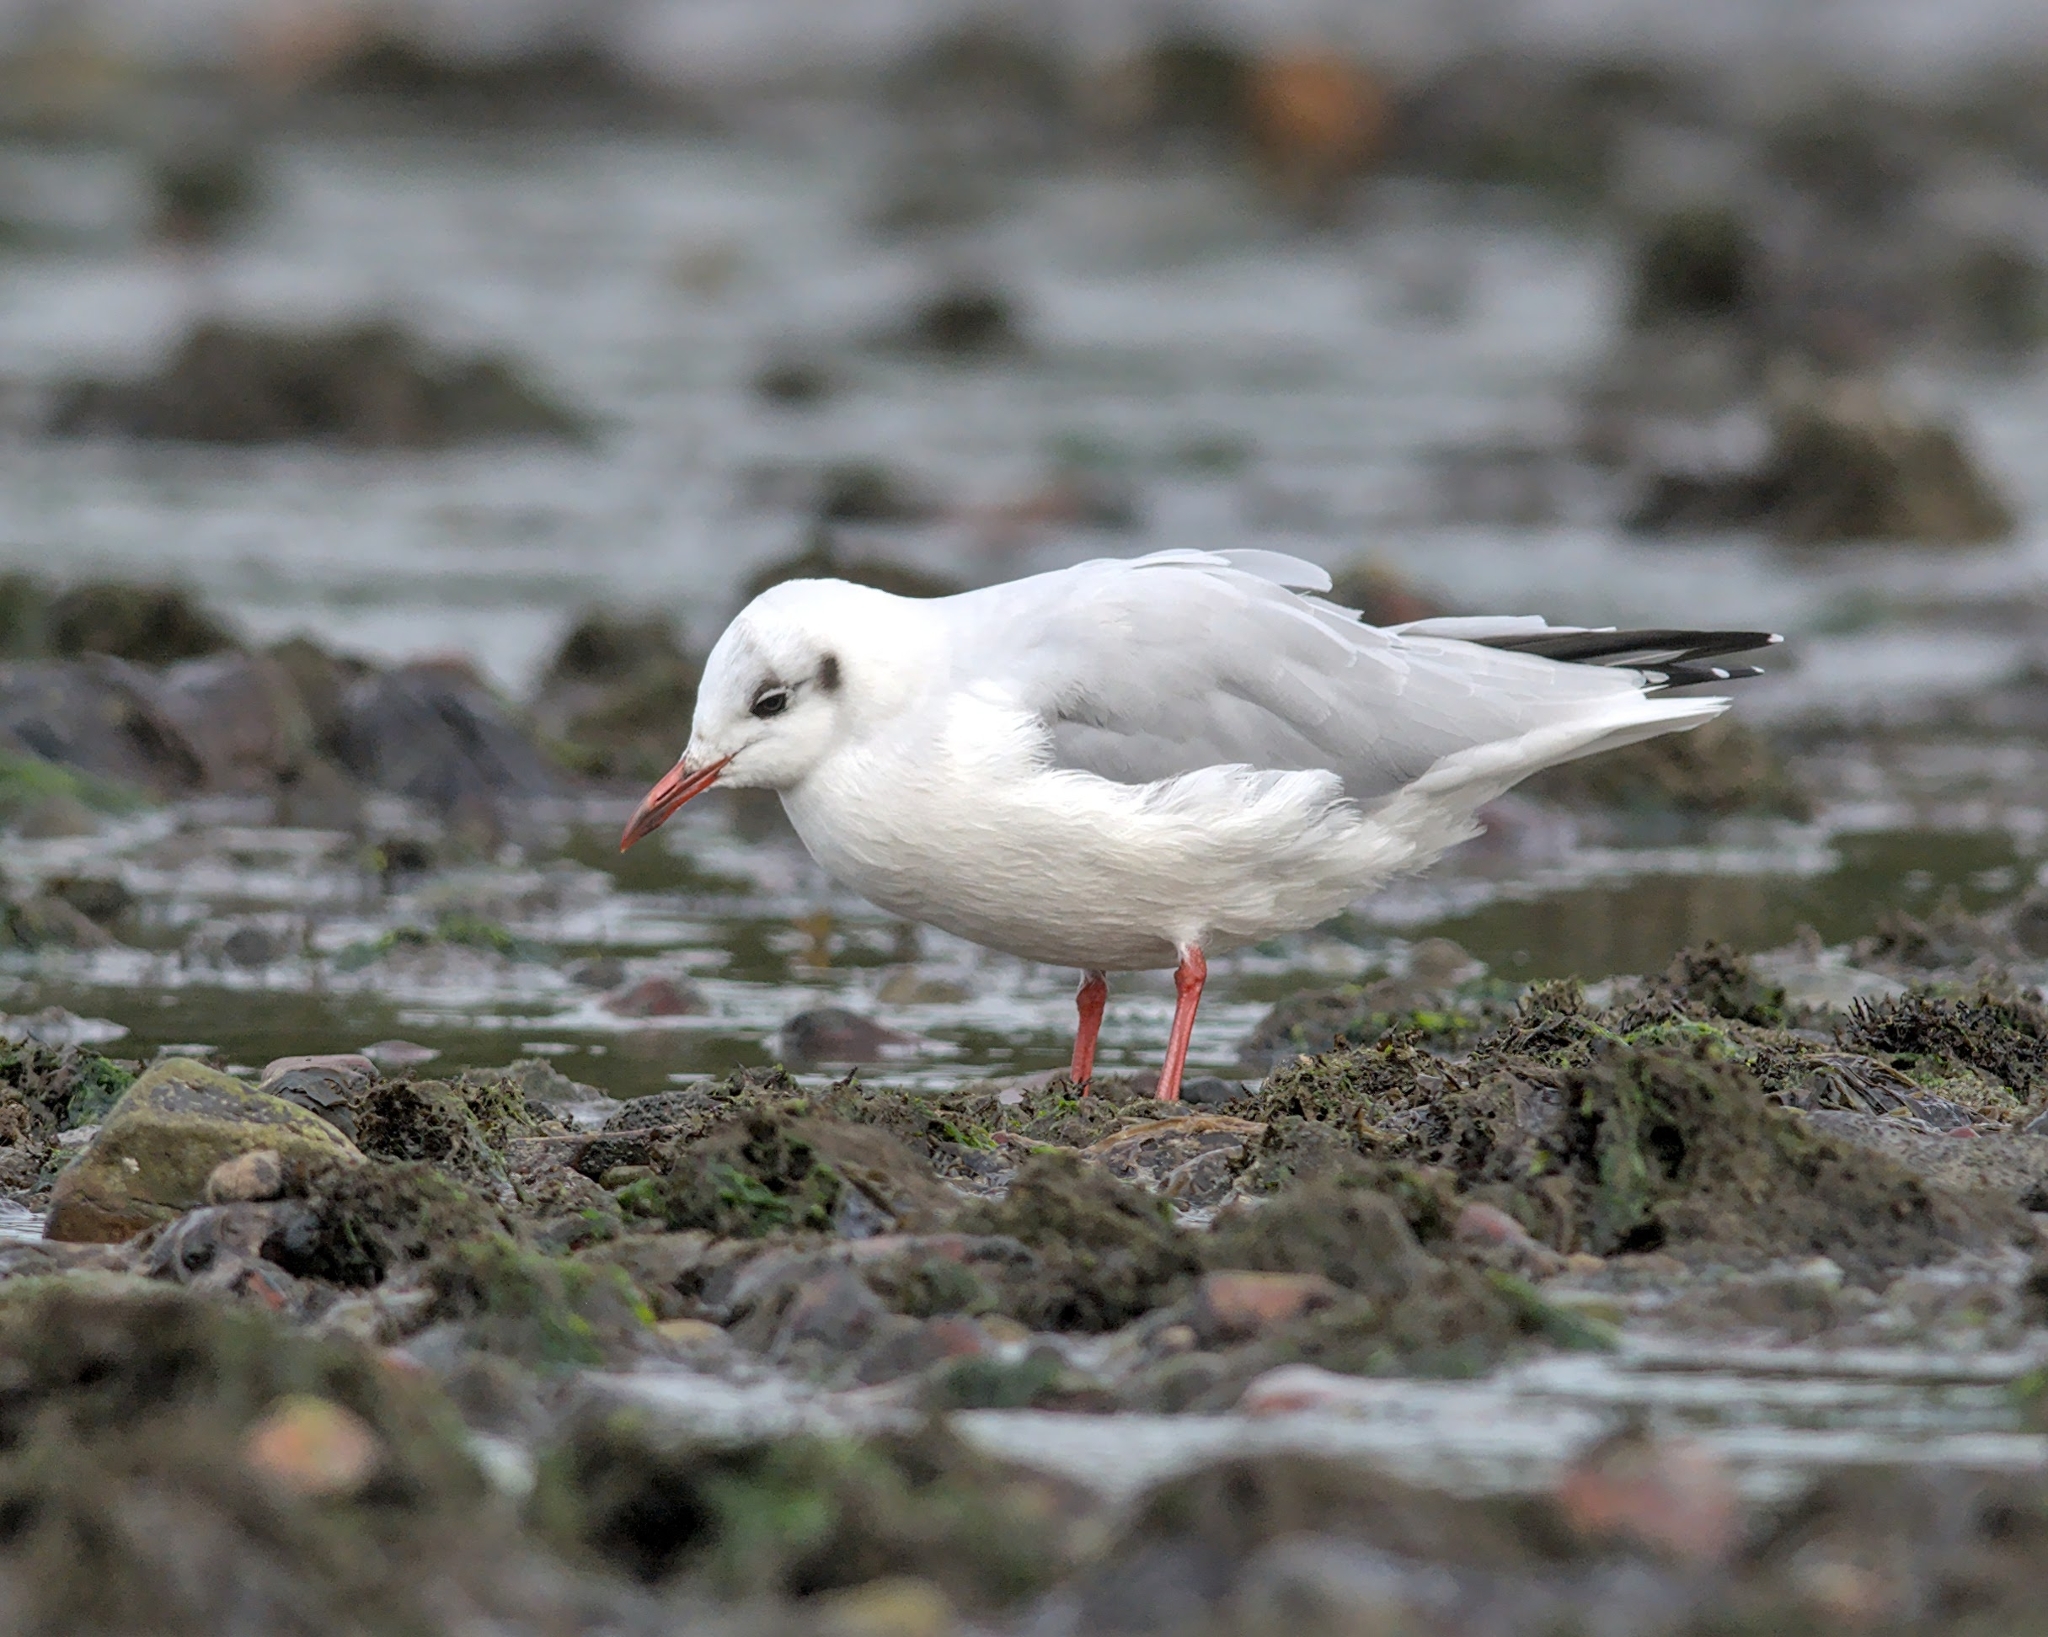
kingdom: Animalia
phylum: Chordata
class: Aves
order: Charadriiformes
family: Laridae
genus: Chroicocephalus
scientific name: Chroicocephalus ridibundus
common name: Black-headed gull
